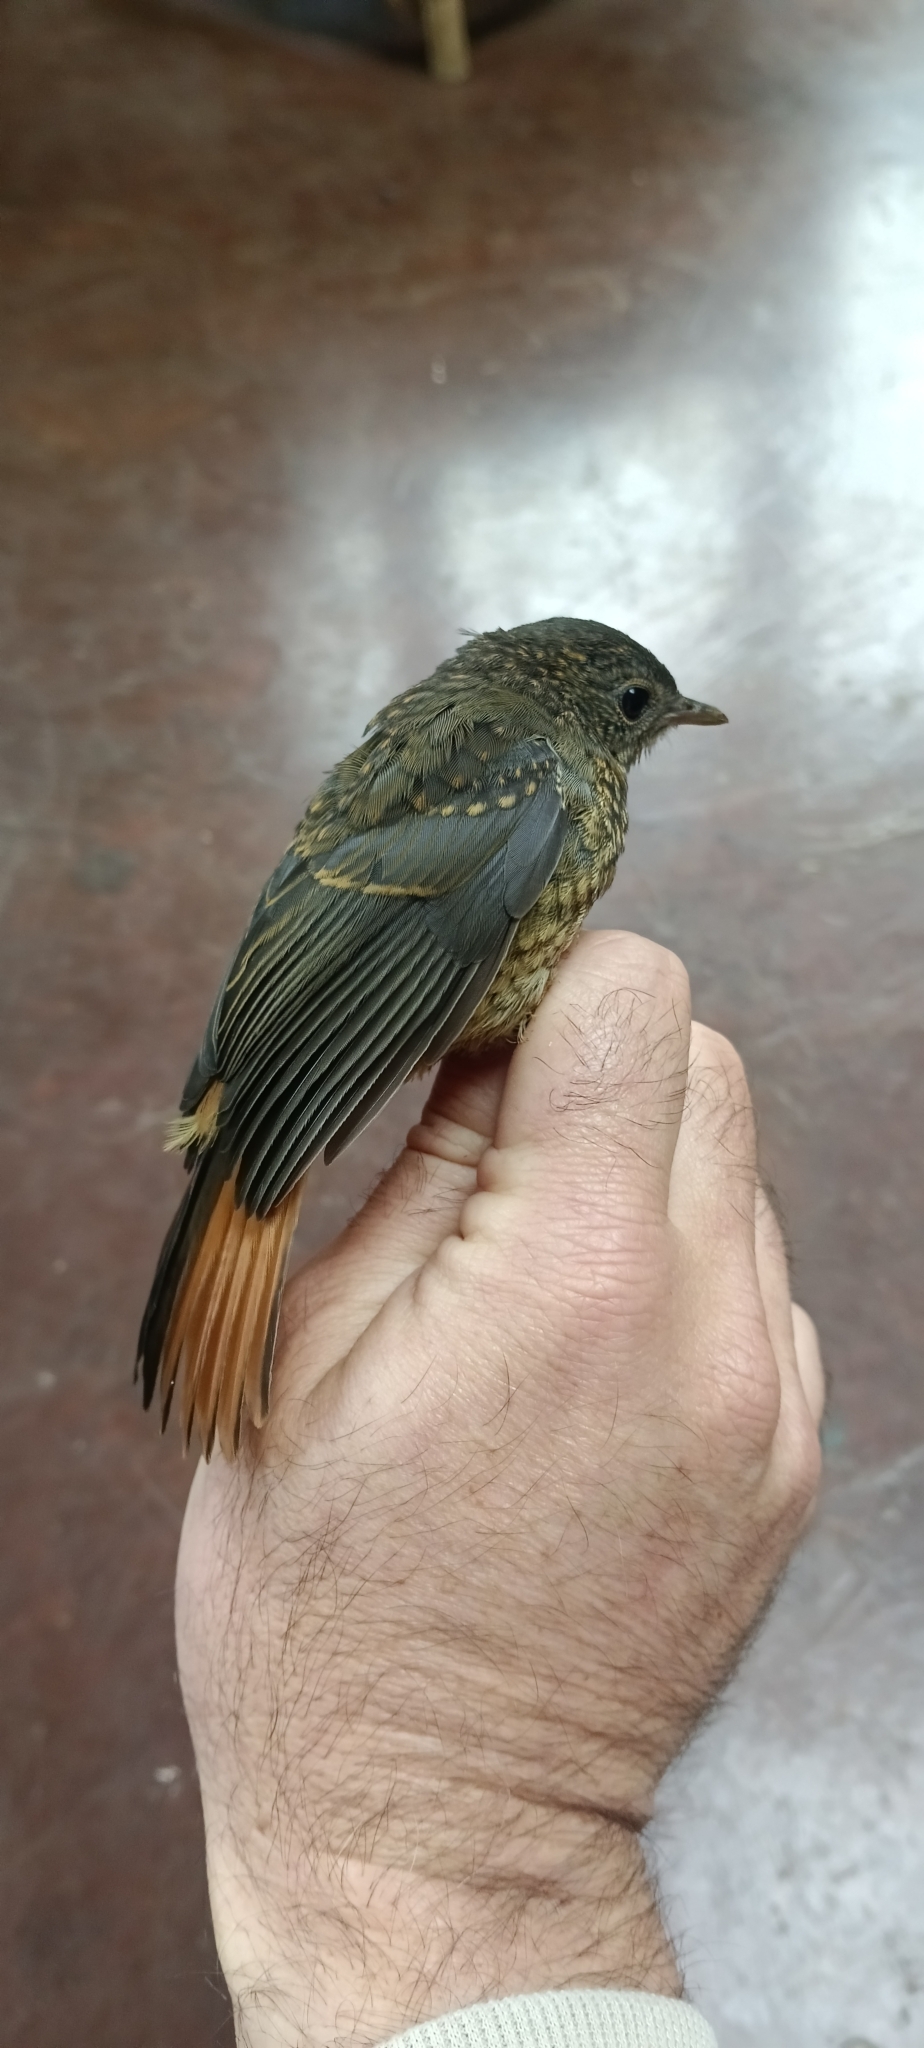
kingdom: Animalia
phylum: Chordata
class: Aves
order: Passeriformes
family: Muscicapidae
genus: Cossypha
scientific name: Cossypha caffra
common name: Cape robin-chat
